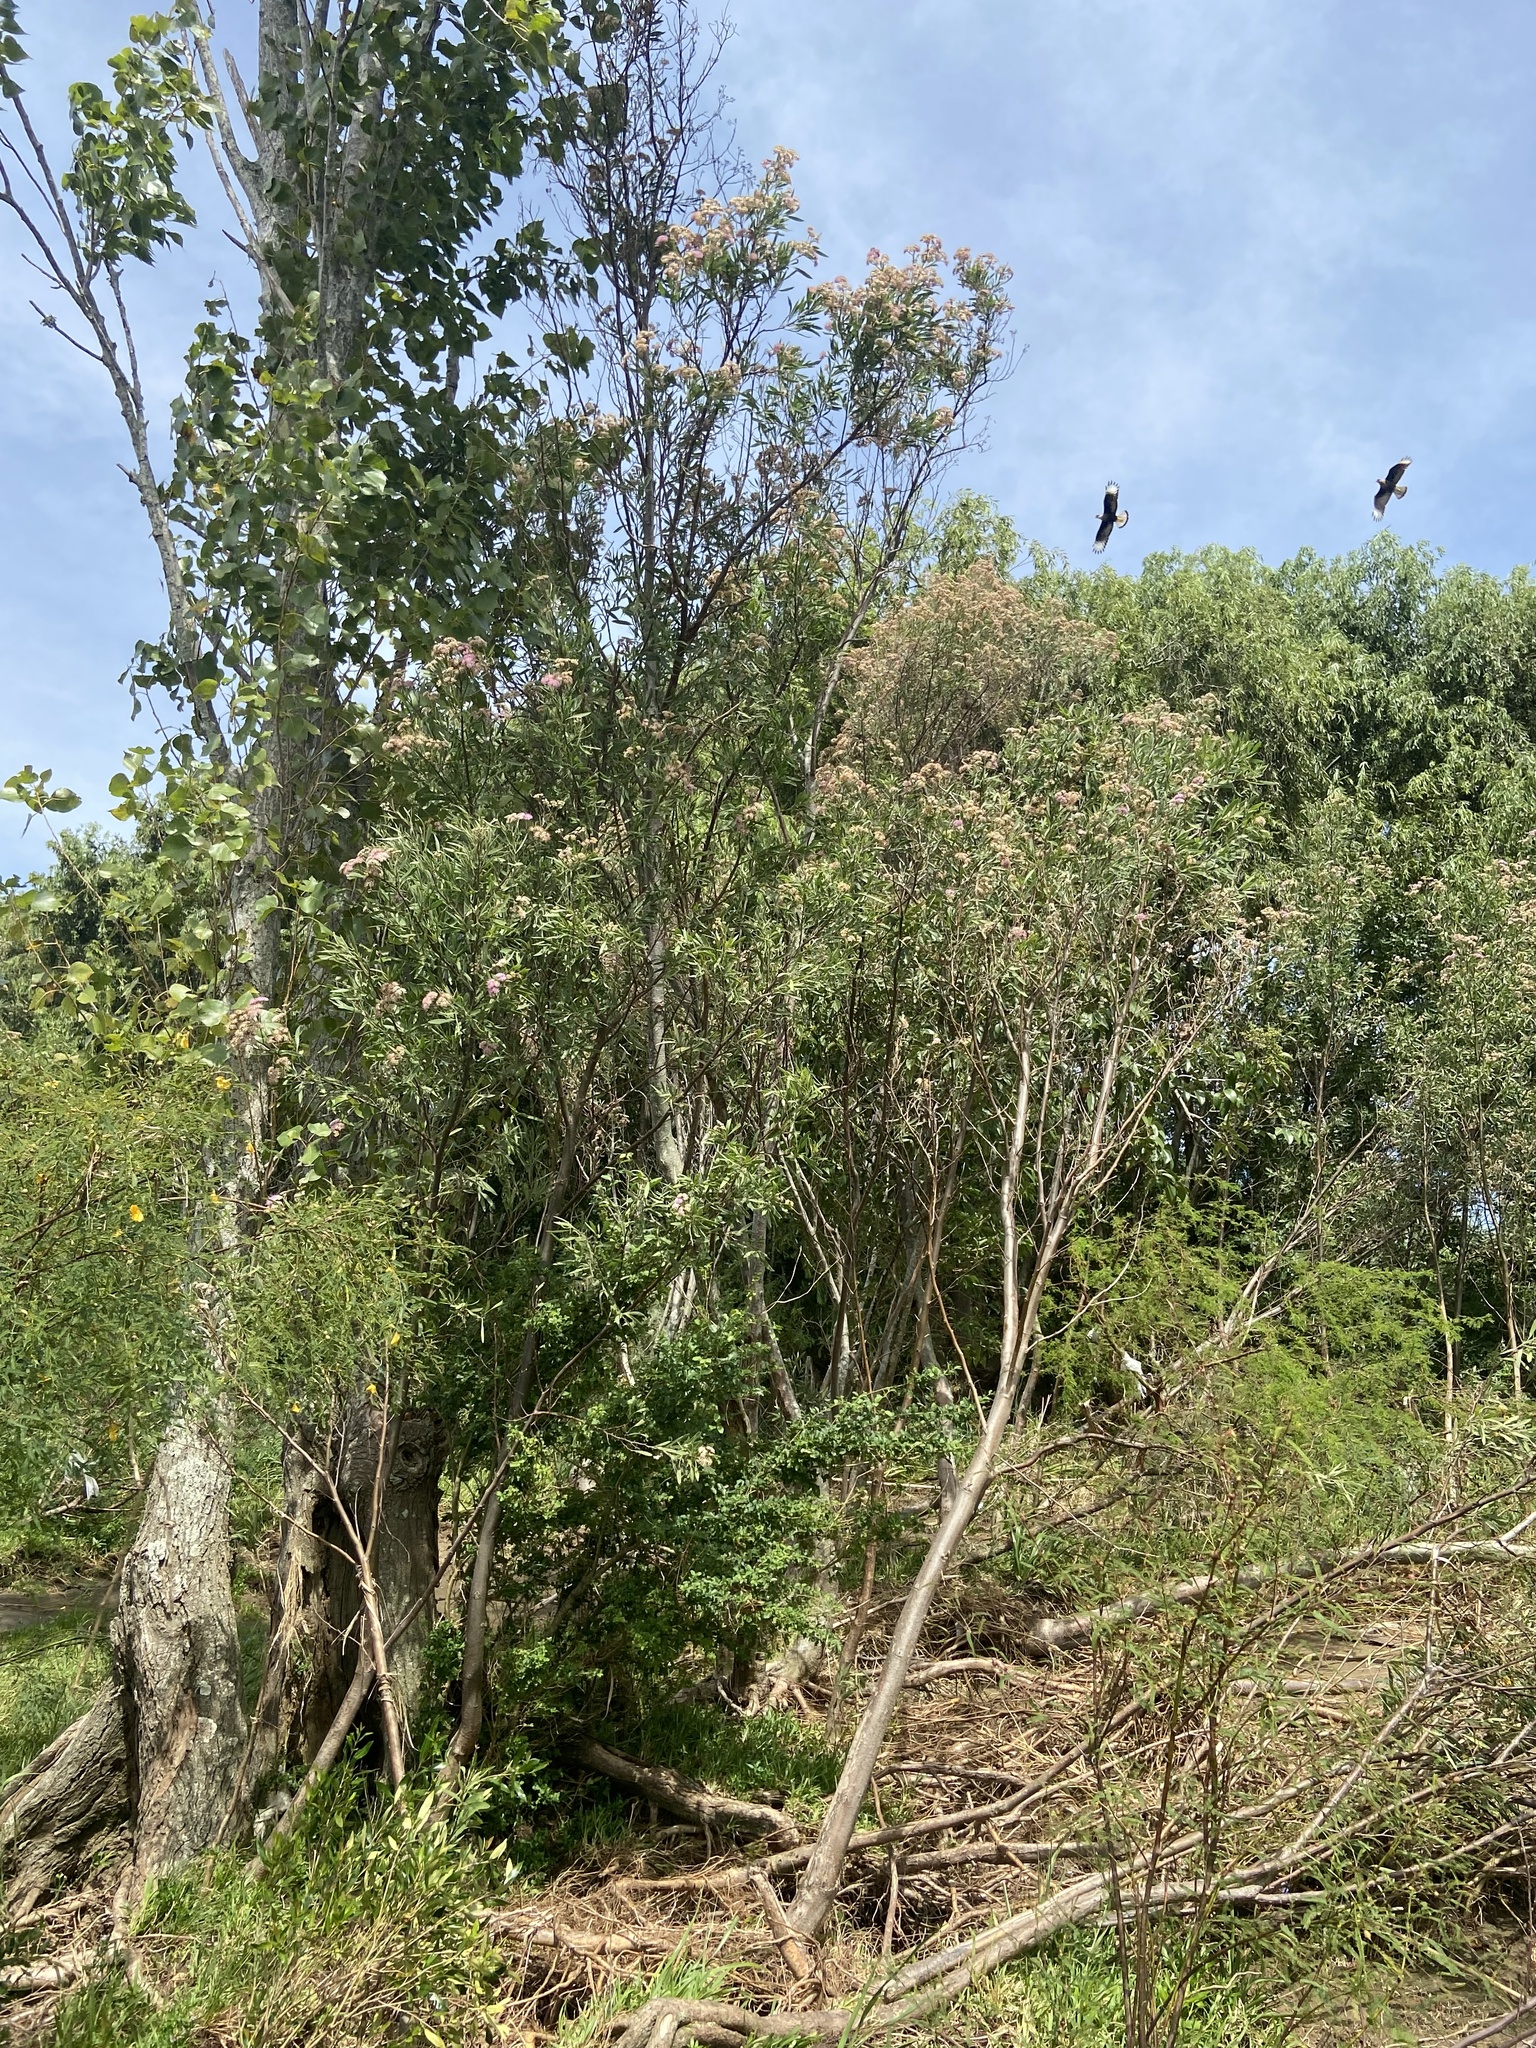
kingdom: Plantae
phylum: Tracheophyta
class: Magnoliopsida
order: Asterales
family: Asteraceae
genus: Tessaria
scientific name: Tessaria integrifolia
